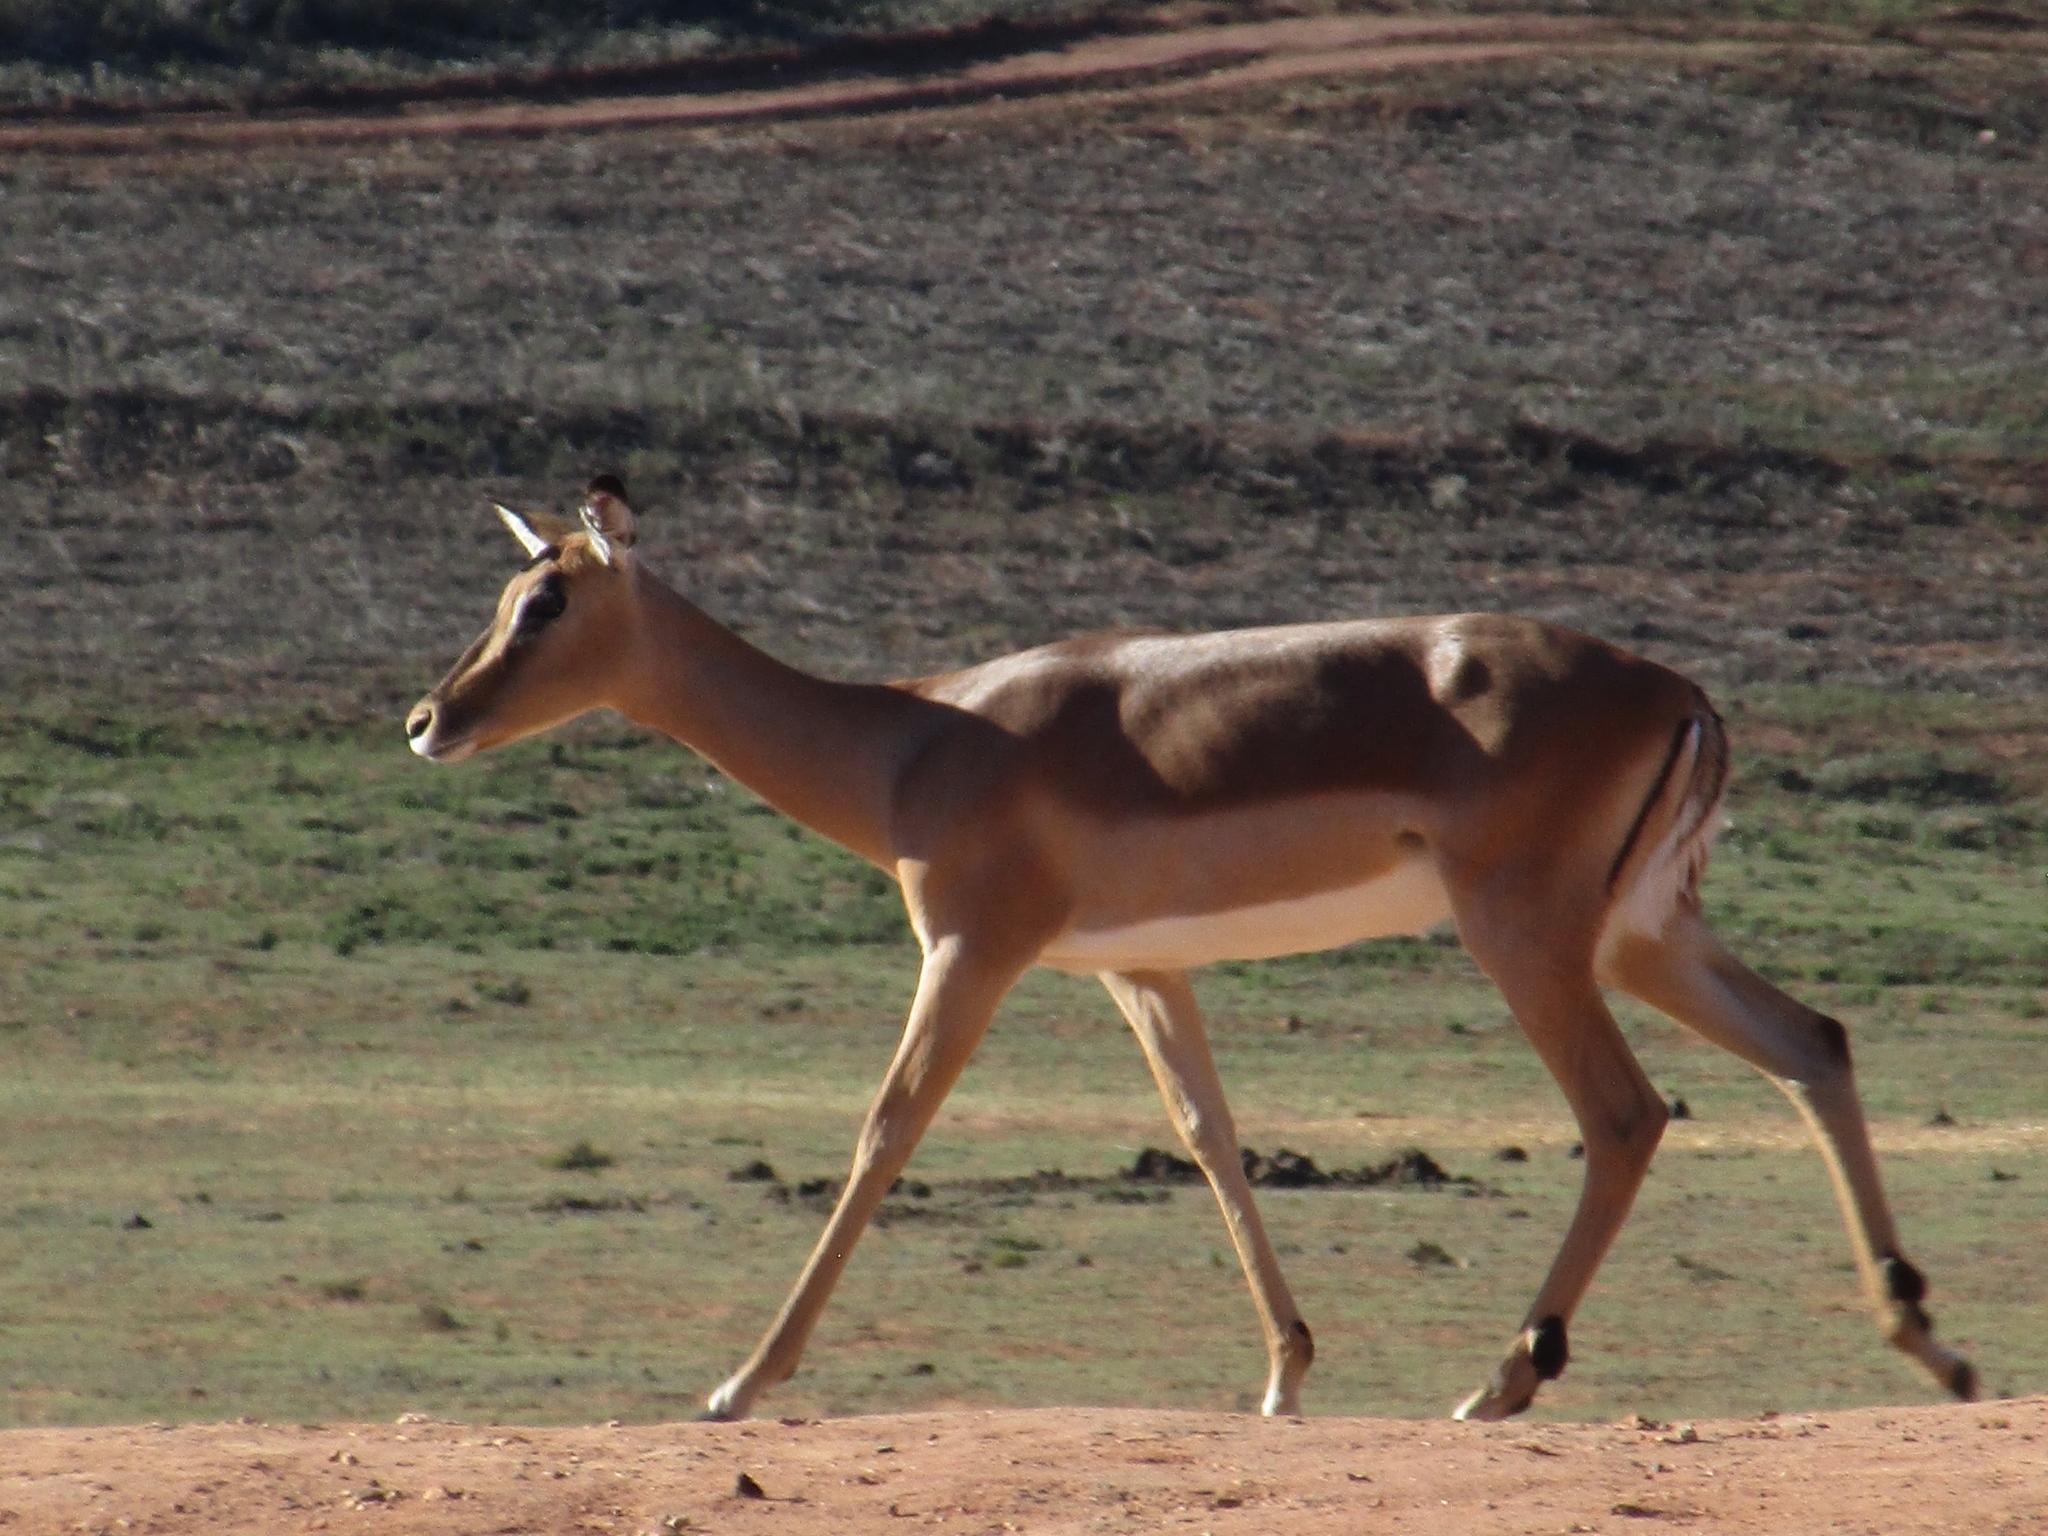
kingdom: Animalia
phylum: Chordata
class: Mammalia
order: Artiodactyla
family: Bovidae
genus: Aepyceros
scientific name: Aepyceros melampus
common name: Impala
